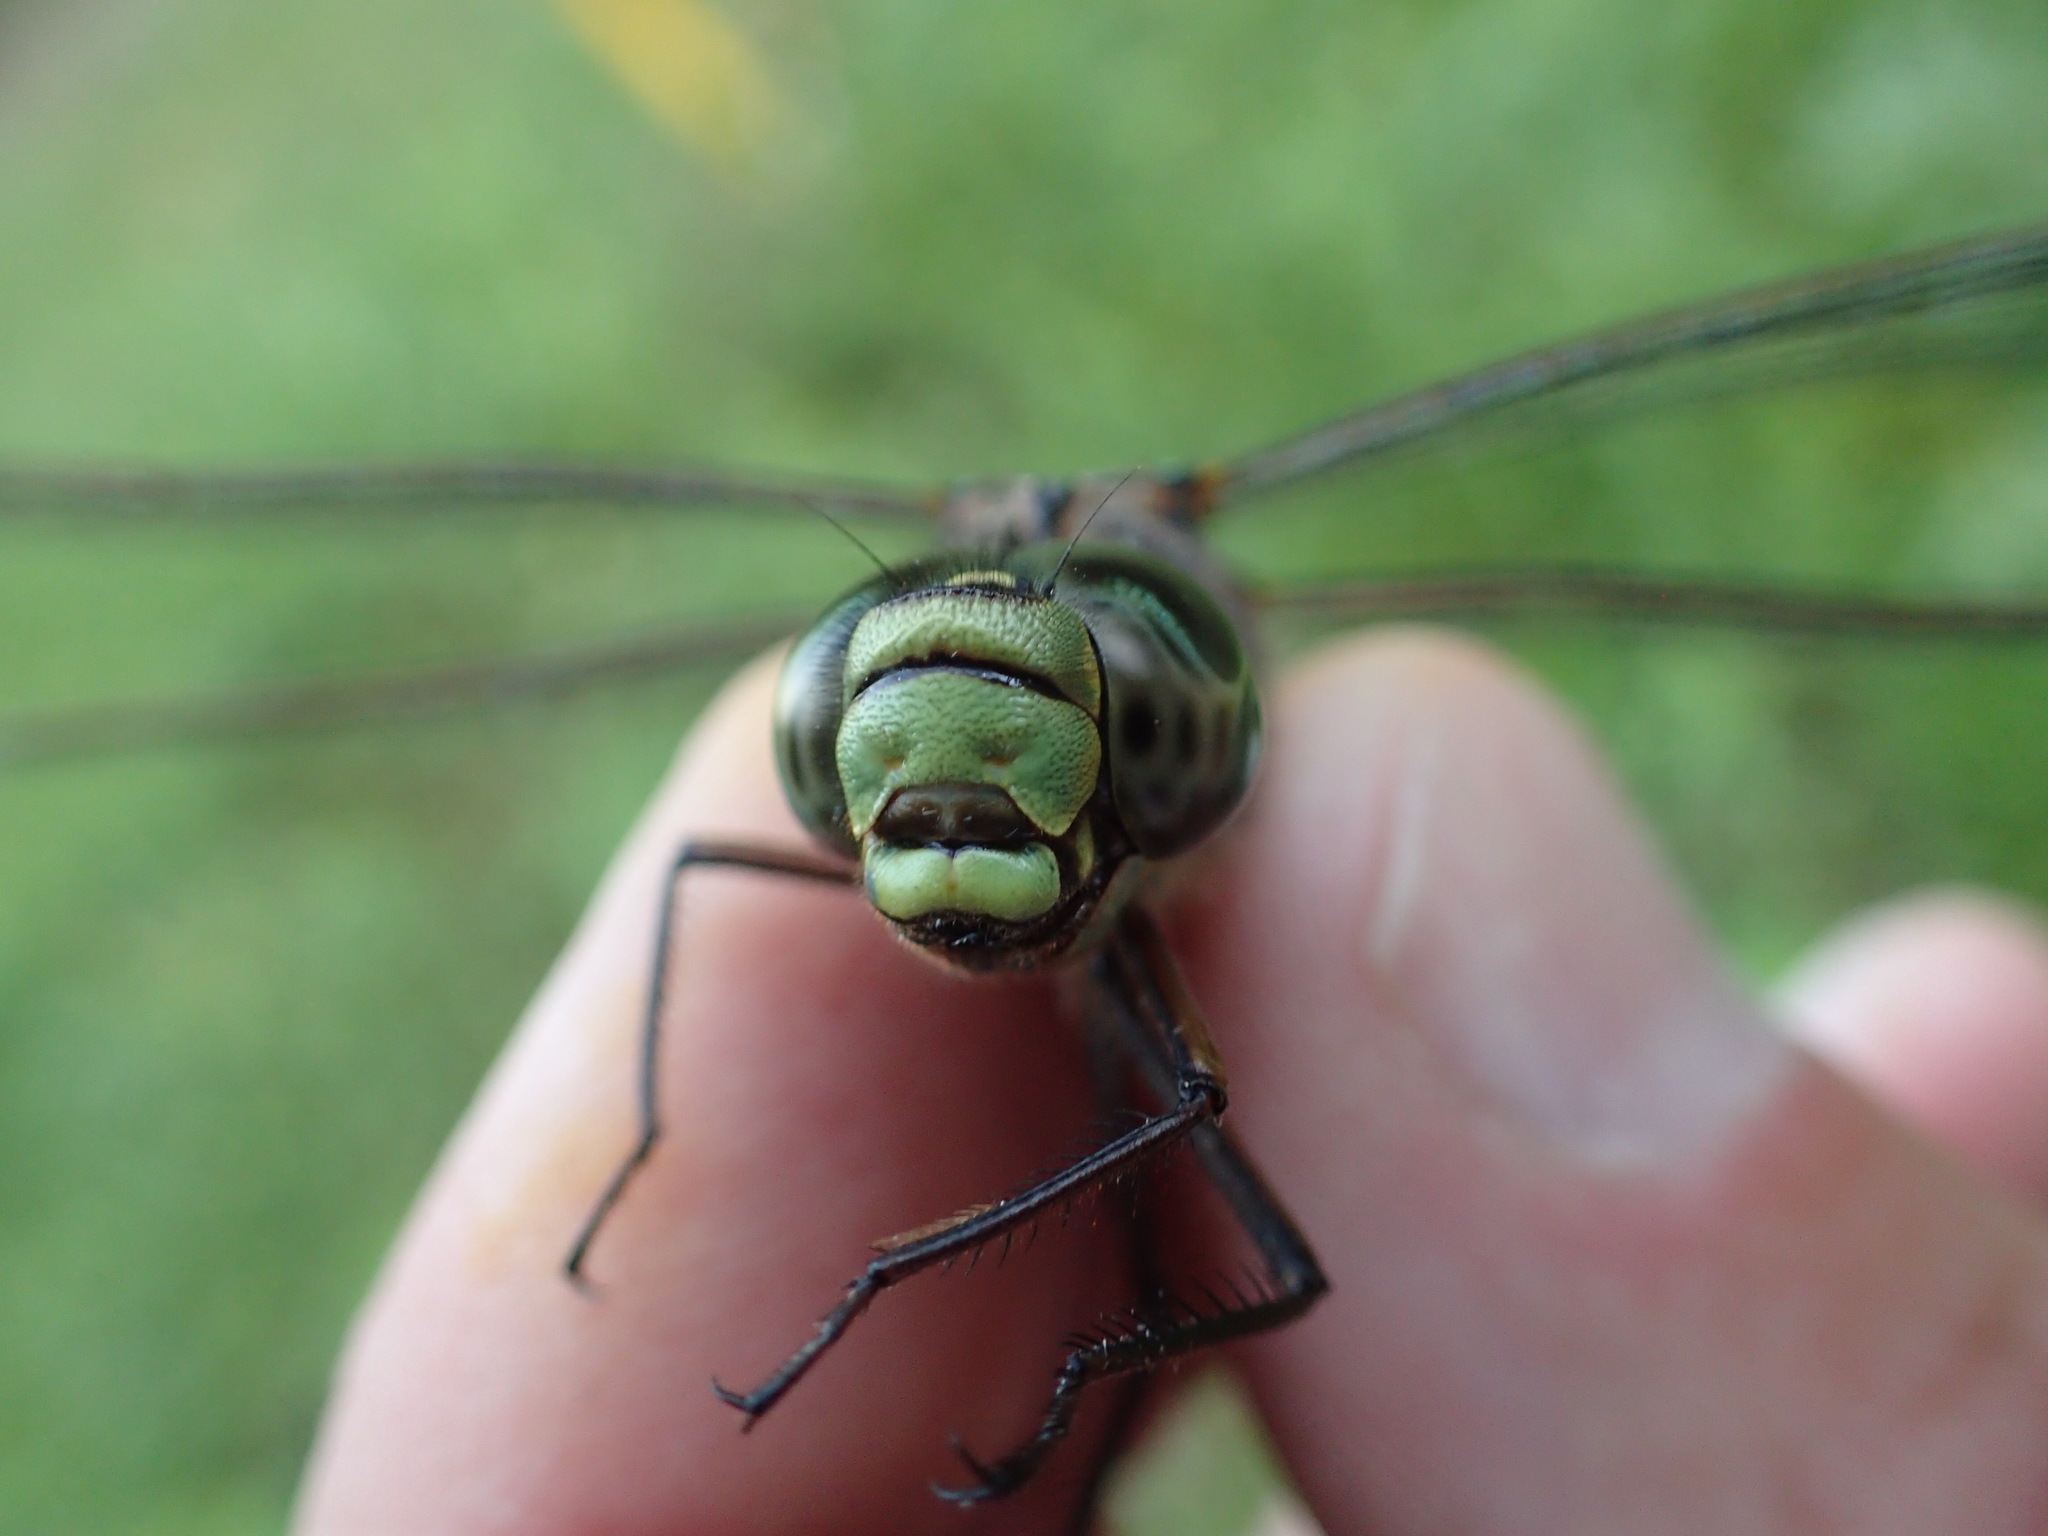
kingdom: Animalia
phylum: Arthropoda
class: Insecta
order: Odonata
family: Aeshnidae
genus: Aeshna
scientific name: Aeshna eremita
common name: Lake darner
